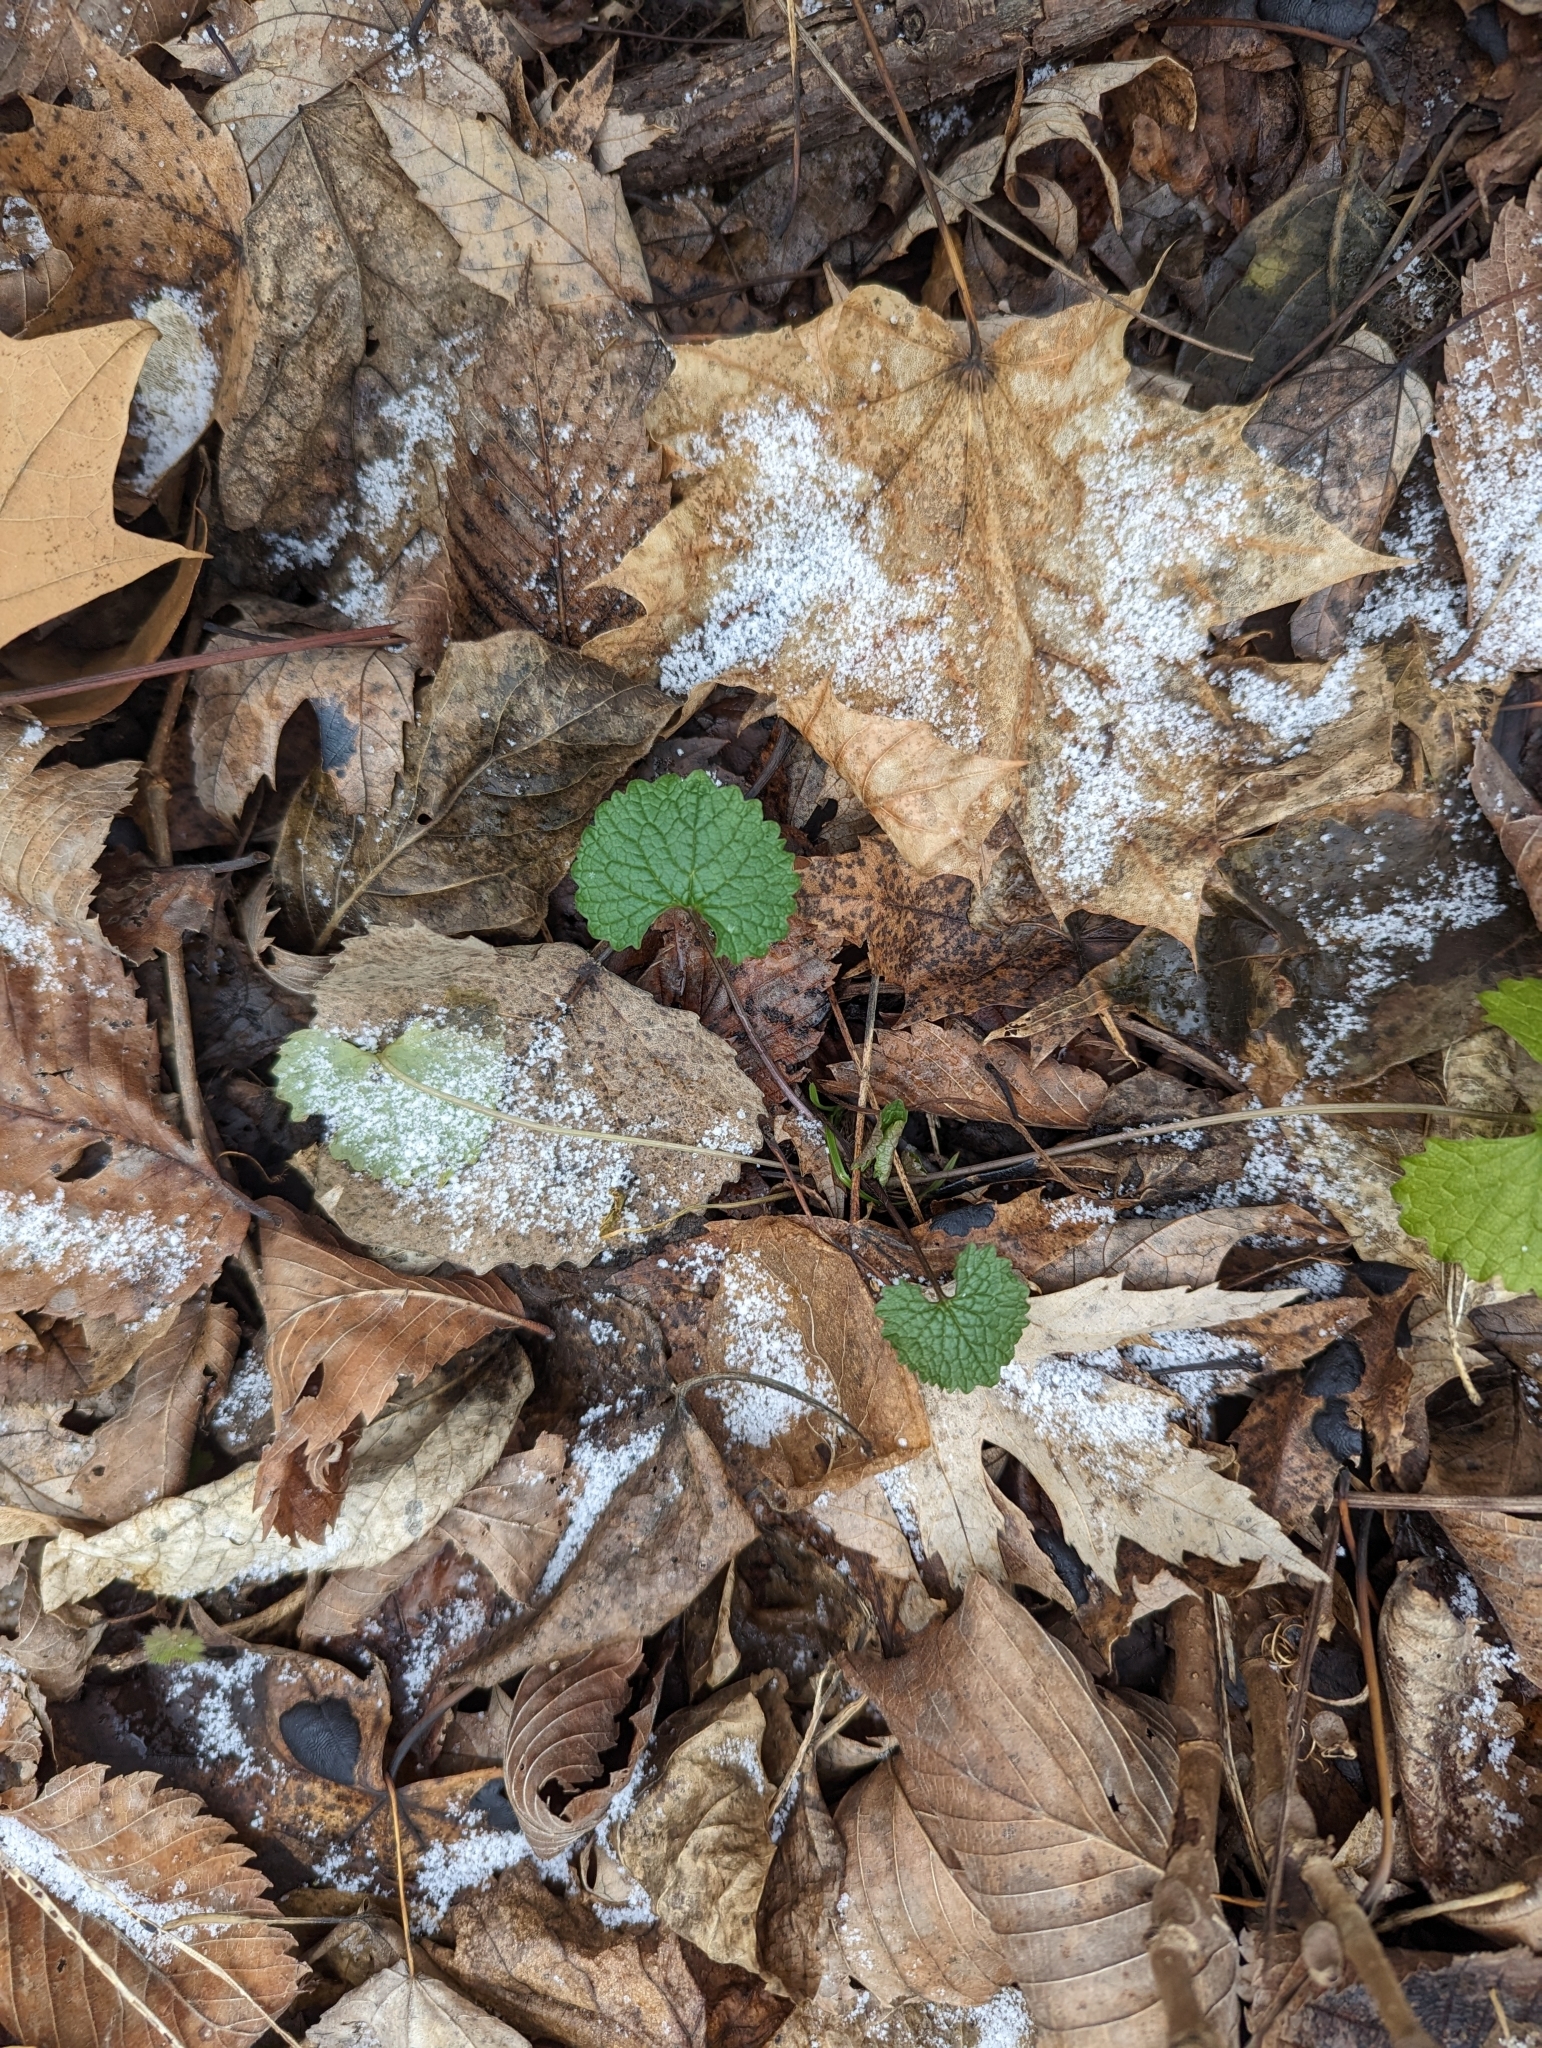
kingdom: Plantae
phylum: Tracheophyta
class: Magnoliopsida
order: Brassicales
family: Brassicaceae
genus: Alliaria
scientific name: Alliaria petiolata
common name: Garlic mustard
